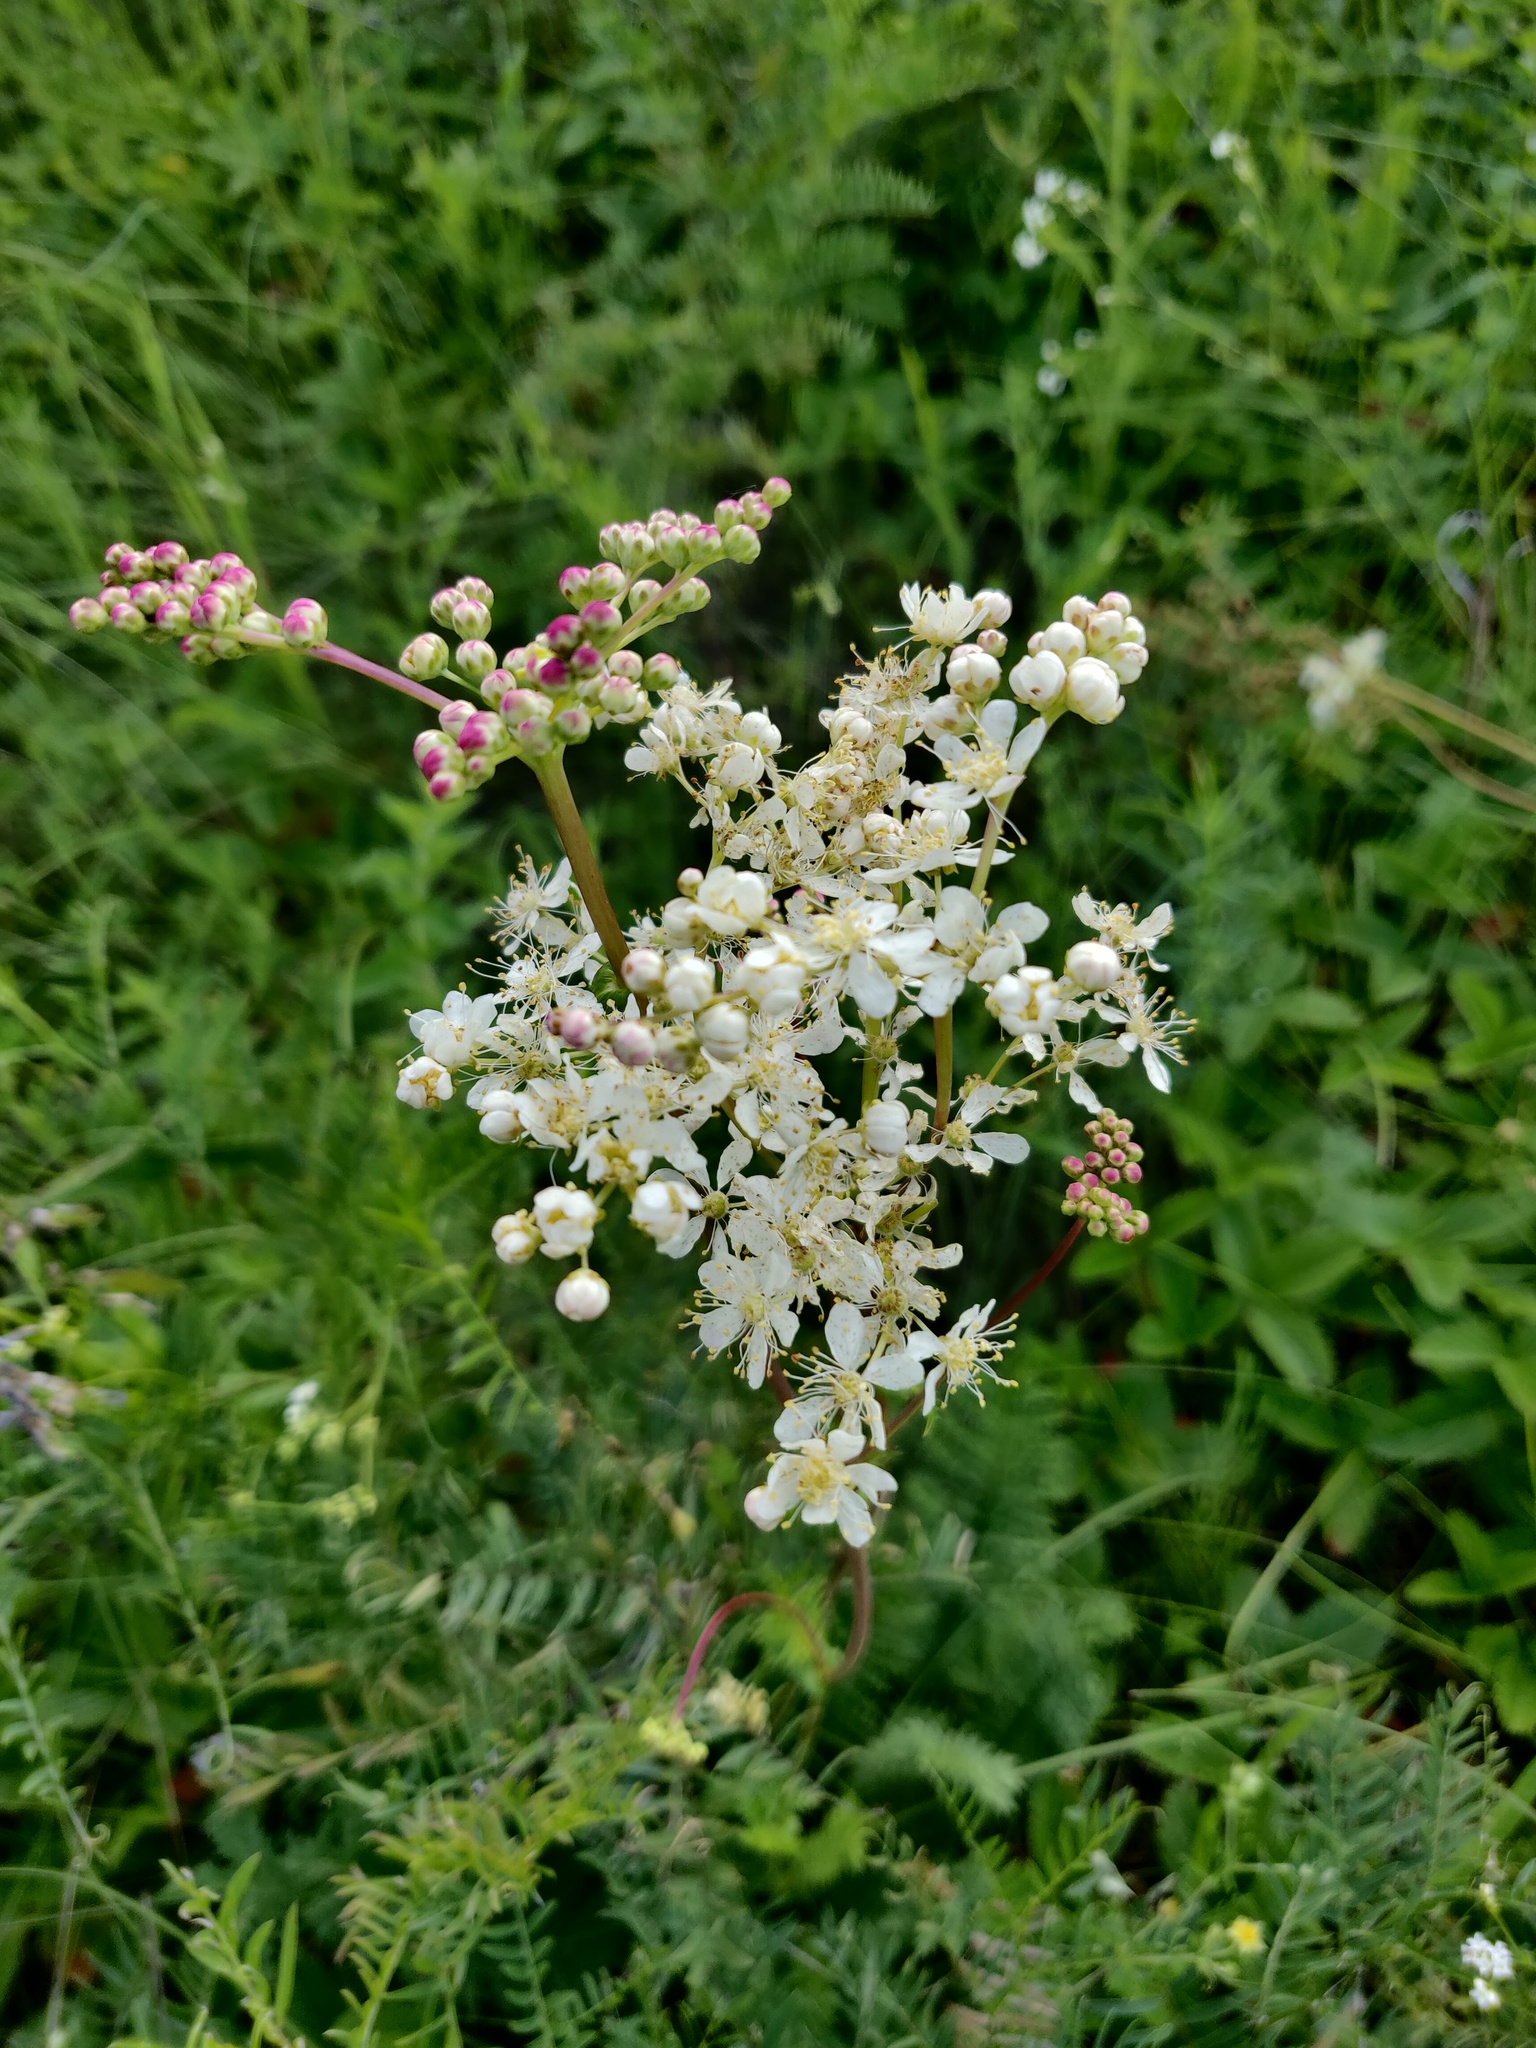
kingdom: Plantae
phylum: Tracheophyta
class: Magnoliopsida
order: Rosales
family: Rosaceae
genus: Filipendula
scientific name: Filipendula vulgaris
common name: Dropwort
